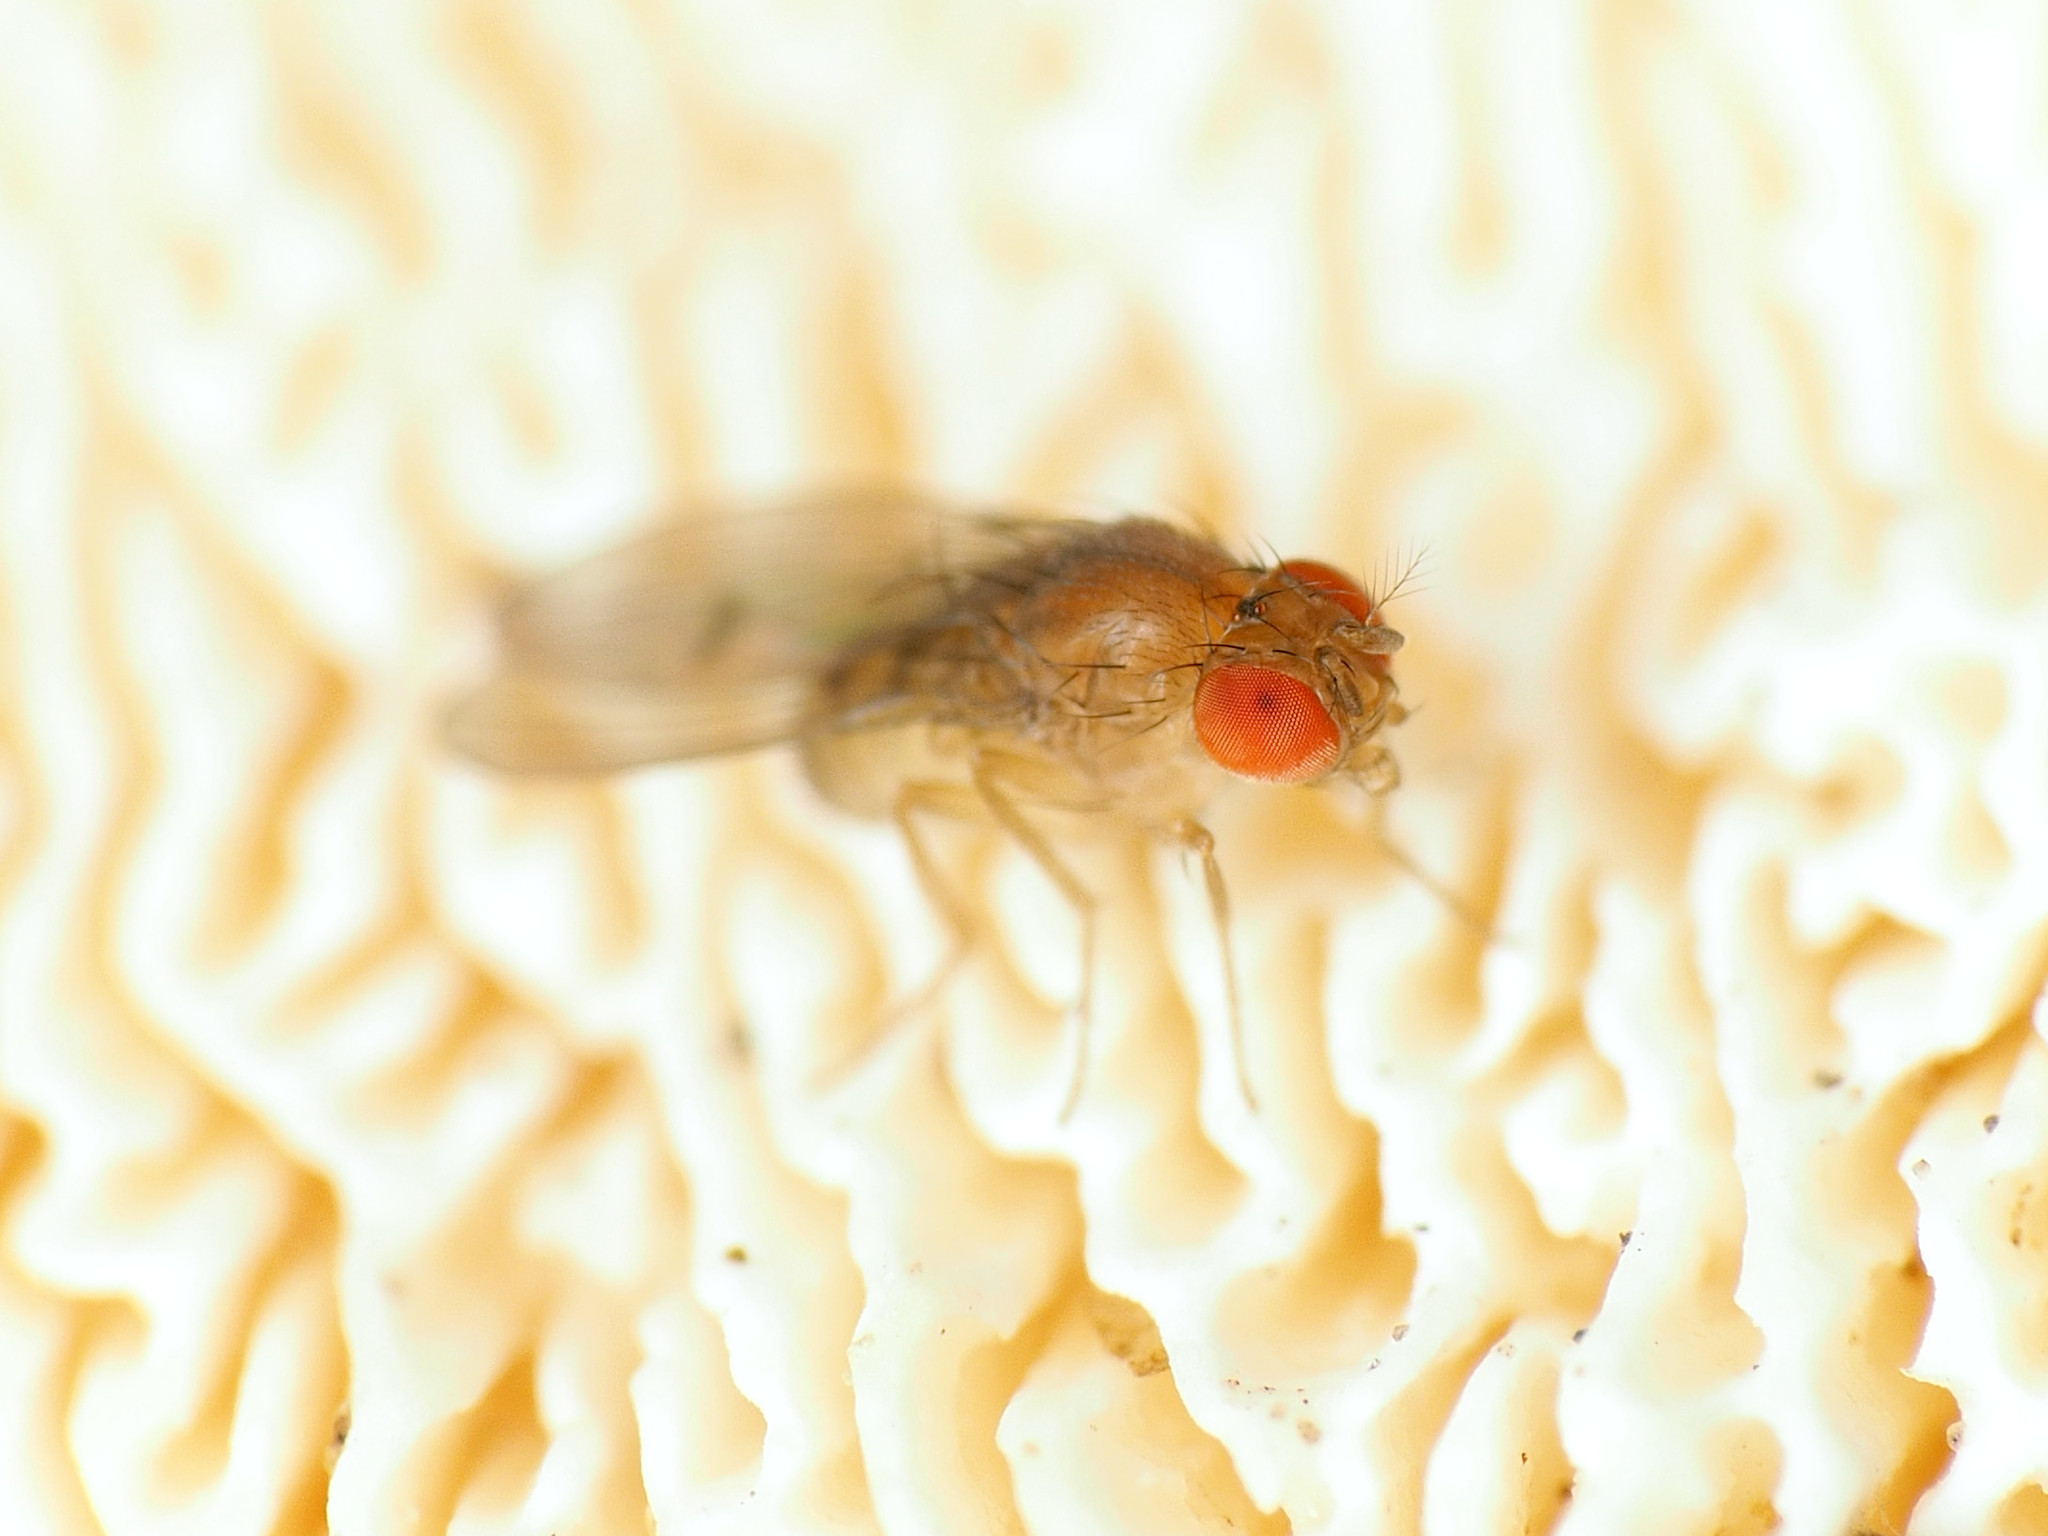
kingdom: Animalia
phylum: Arthropoda
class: Insecta
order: Diptera
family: Drosophilidae
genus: Drosophila
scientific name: Drosophila tripunctata
